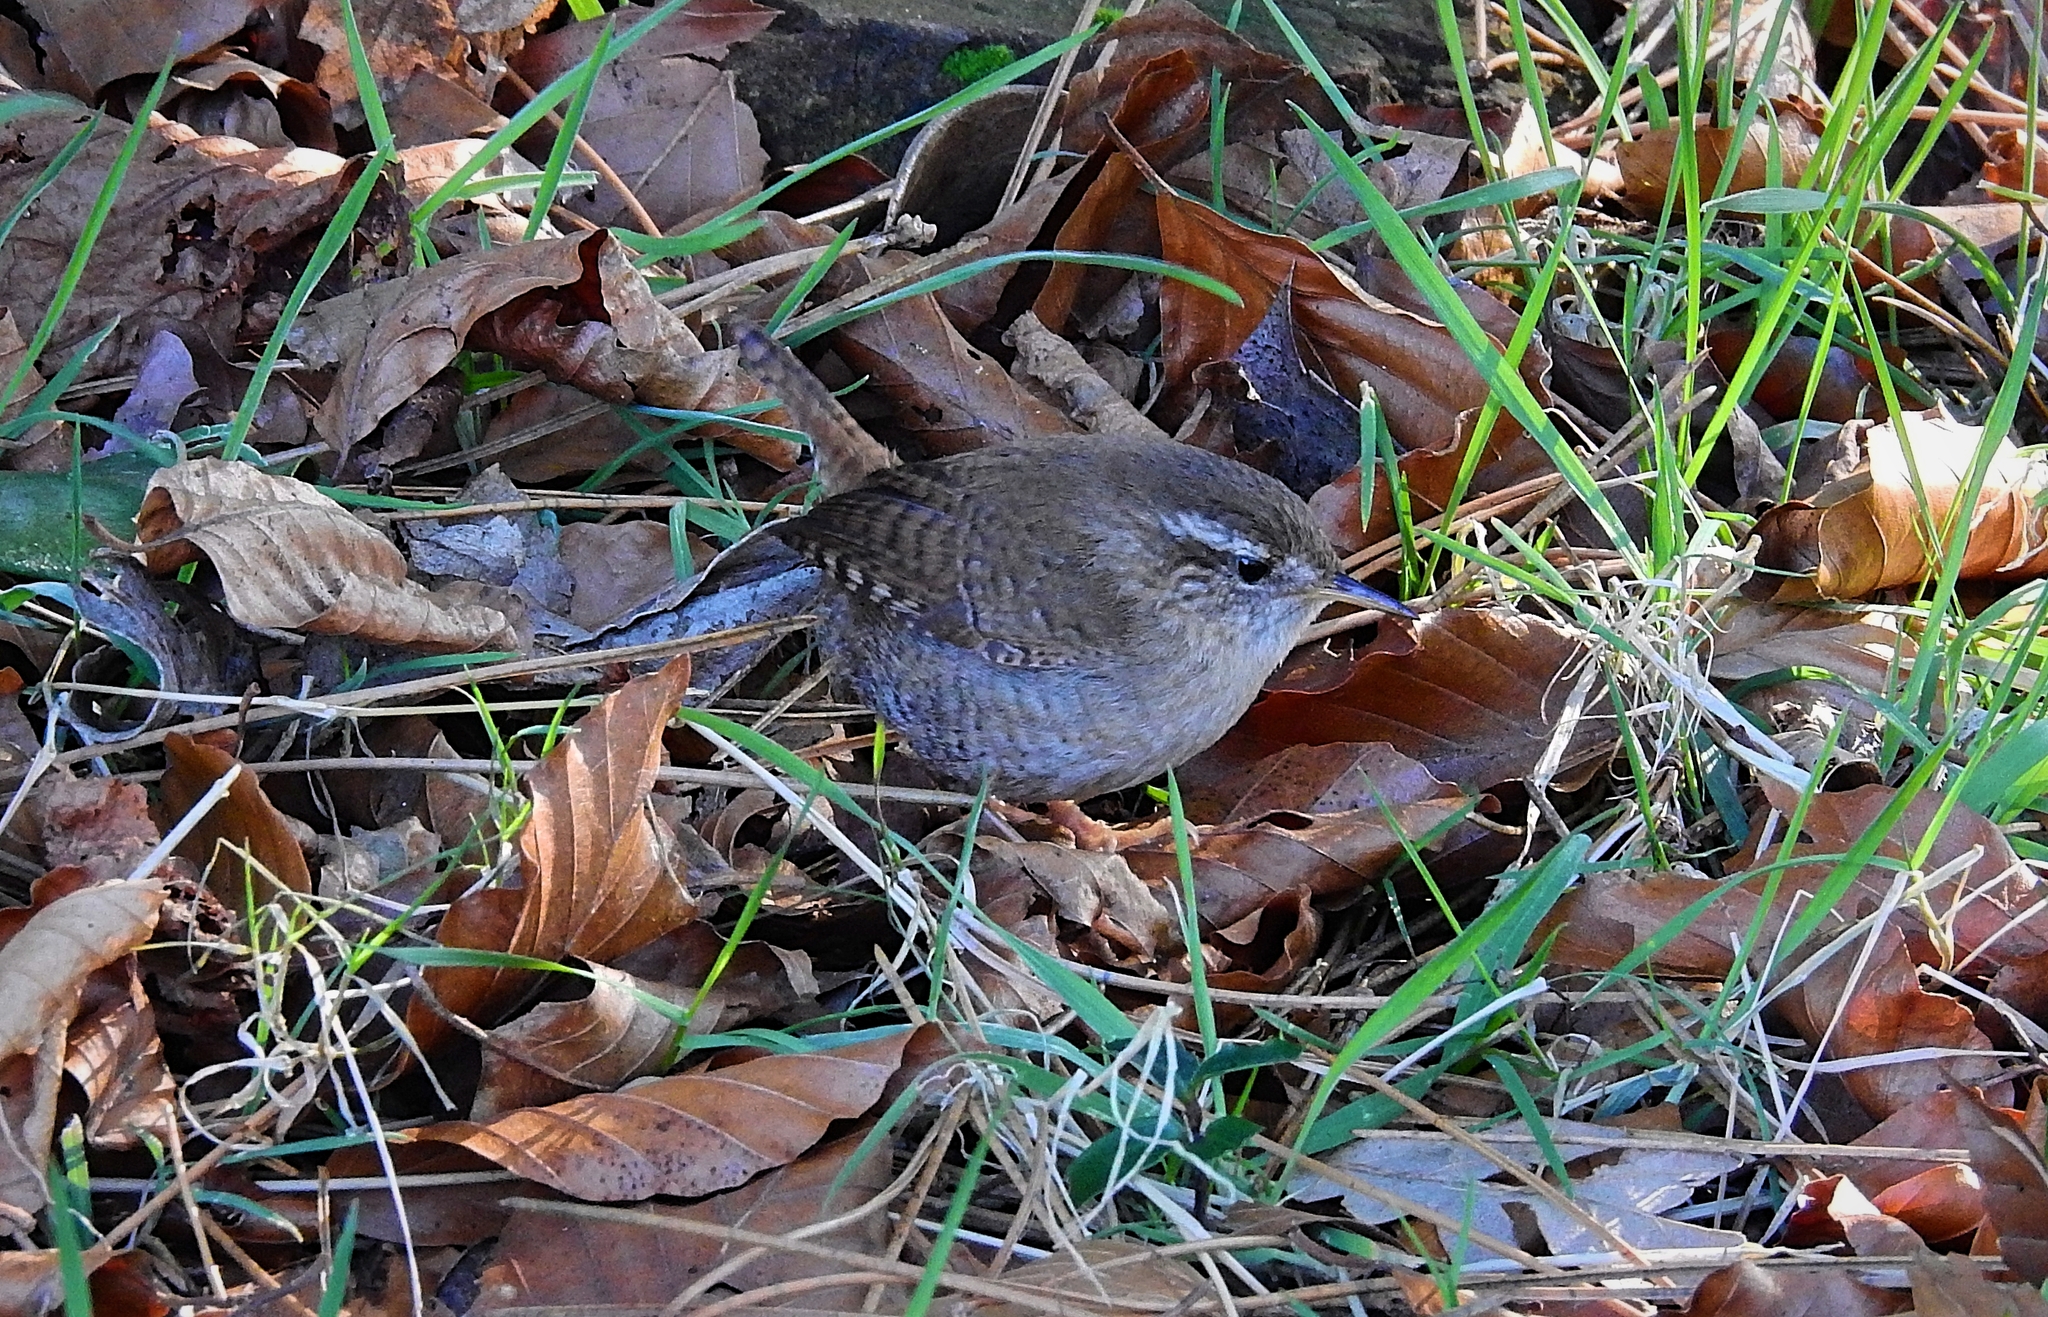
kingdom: Animalia
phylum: Chordata
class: Aves
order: Passeriformes
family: Troglodytidae
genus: Troglodytes
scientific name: Troglodytes troglodytes
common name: Eurasian wren
